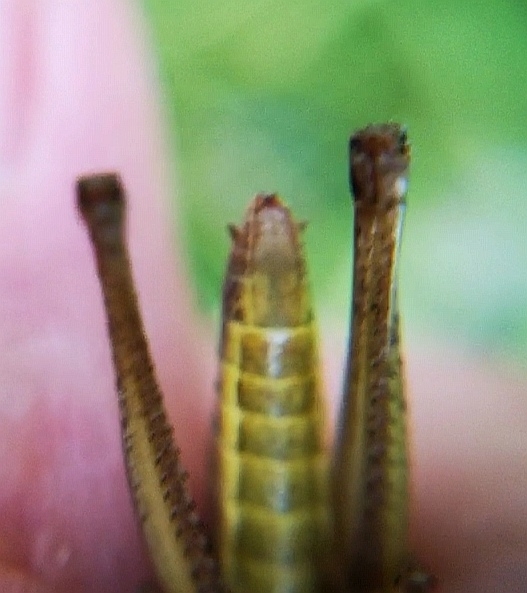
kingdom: Animalia
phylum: Arthropoda
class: Insecta
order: Orthoptera
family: Acrididae
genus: Pseudochorthippus
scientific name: Pseudochorthippus parallelus
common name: Meadow grasshopper
